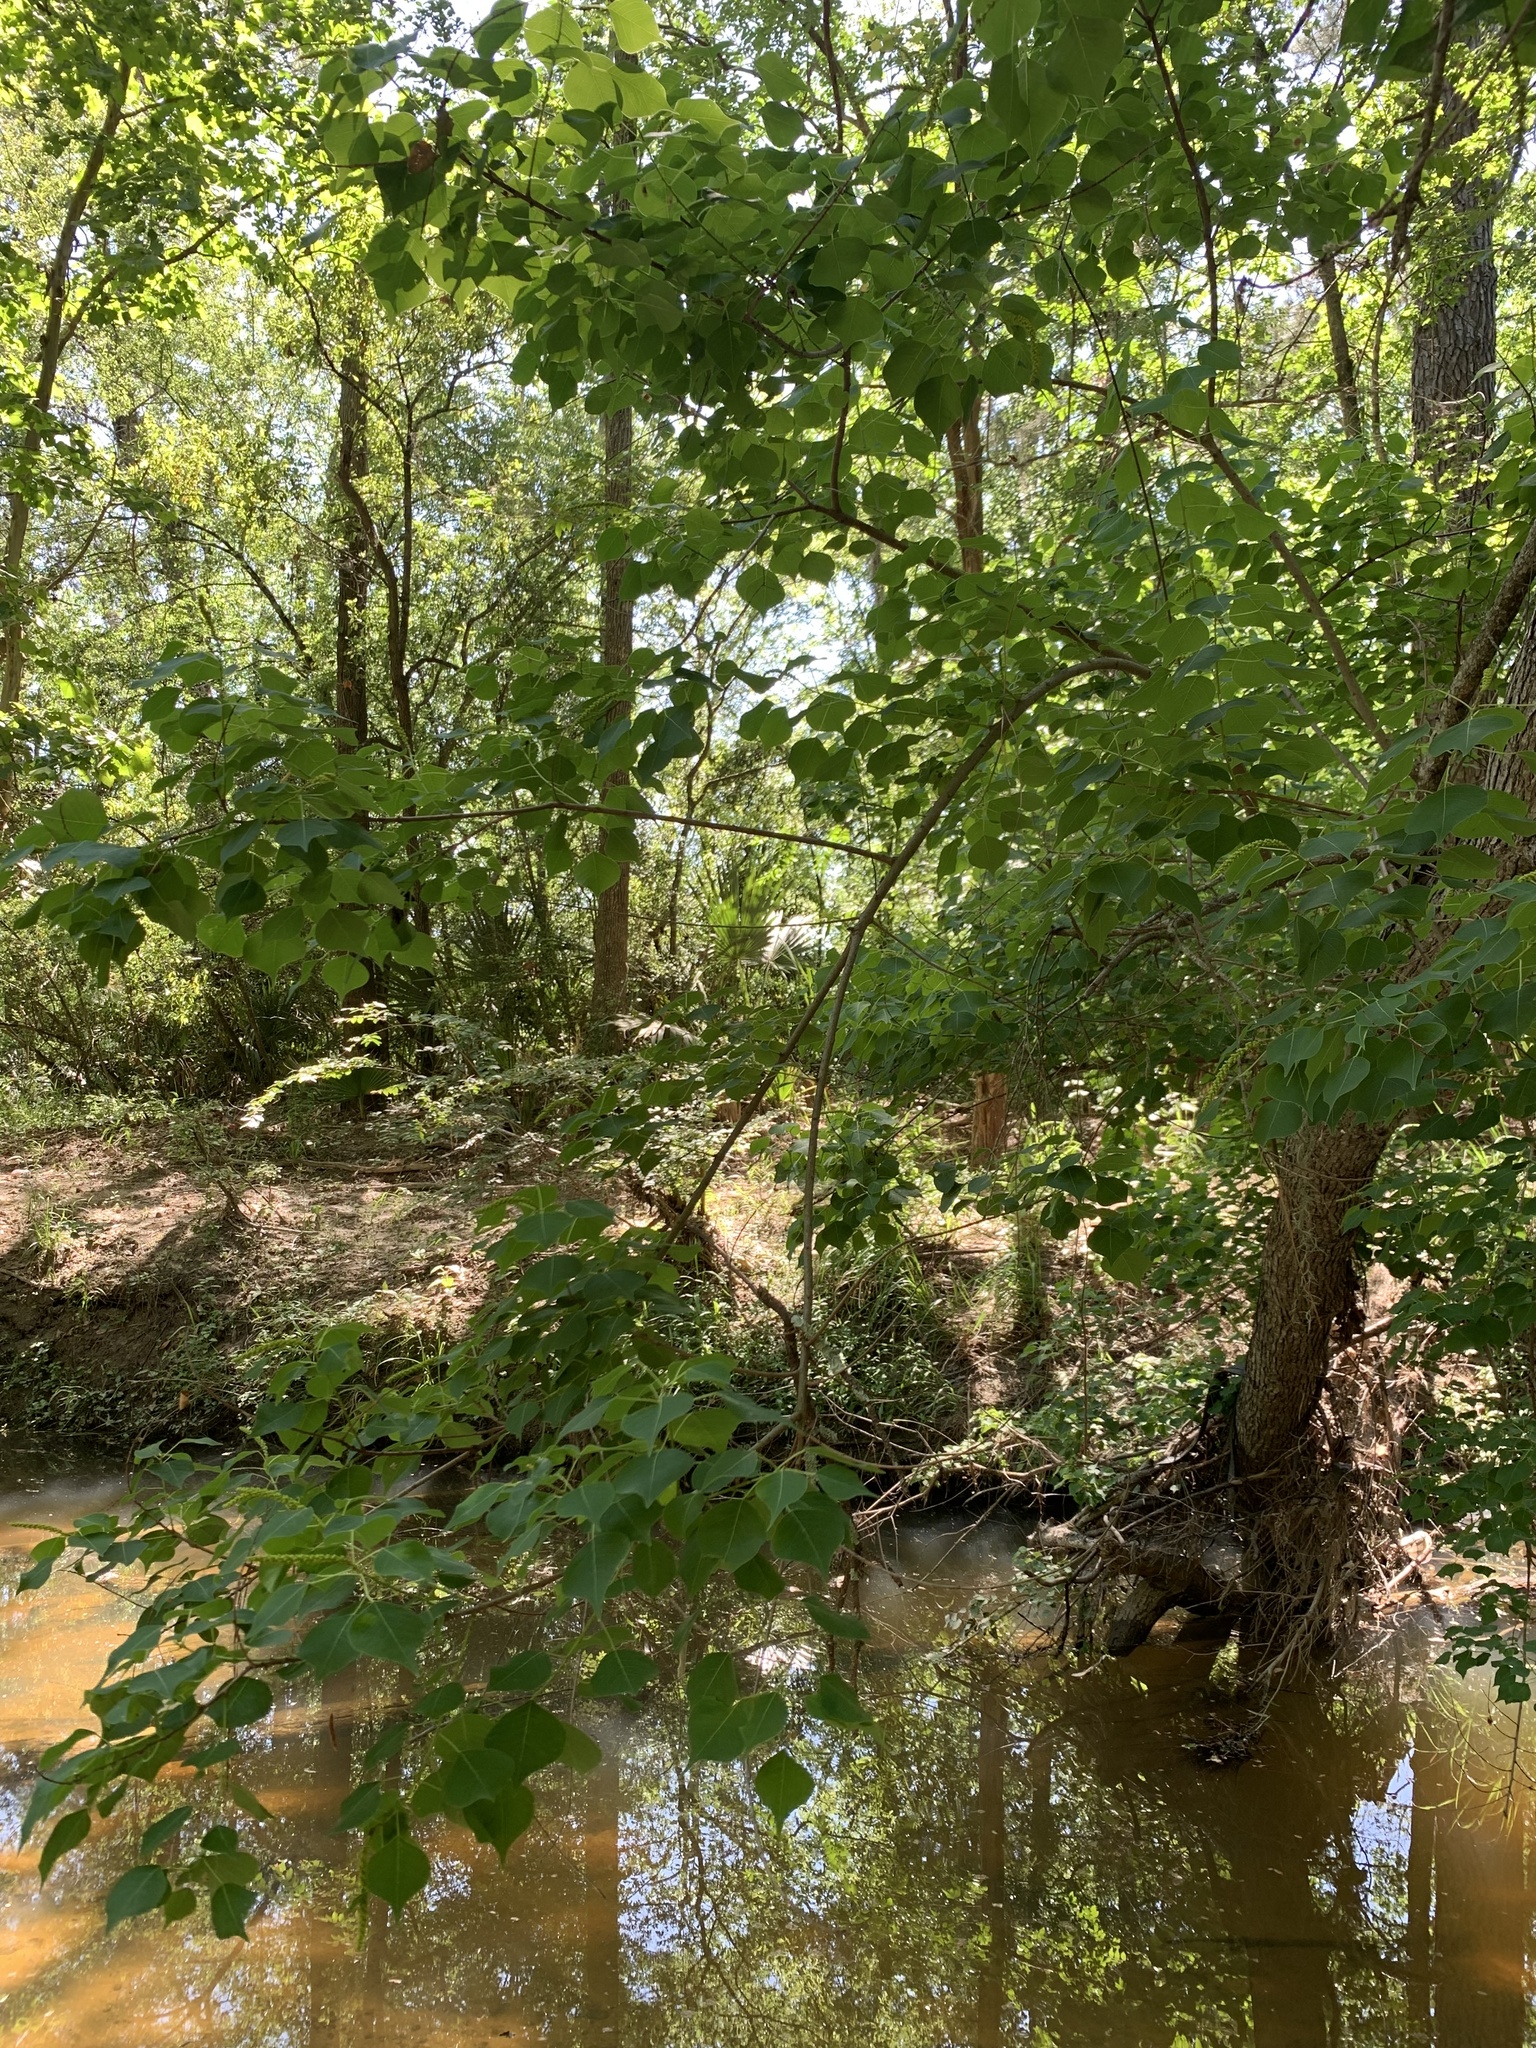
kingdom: Plantae
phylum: Tracheophyta
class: Magnoliopsida
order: Malpighiales
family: Euphorbiaceae
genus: Triadica
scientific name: Triadica sebifera
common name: Chinese tallow
